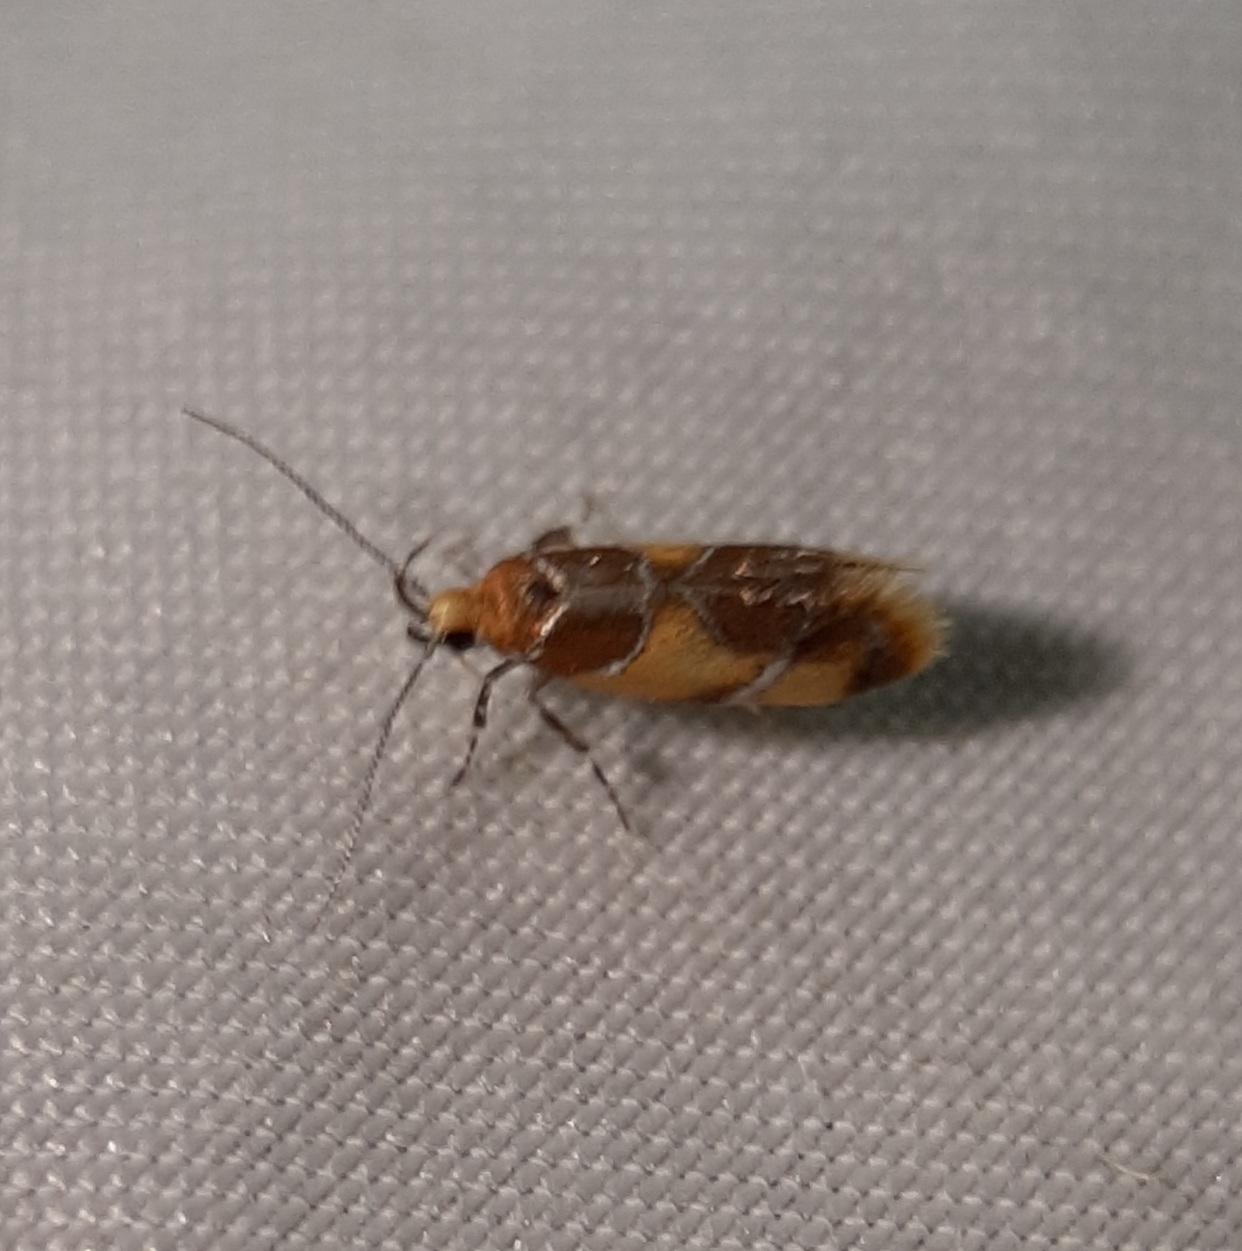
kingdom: Animalia
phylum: Arthropoda
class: Insecta
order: Lepidoptera
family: Oecophoridae
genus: Callima
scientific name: Callima argenticinctella
